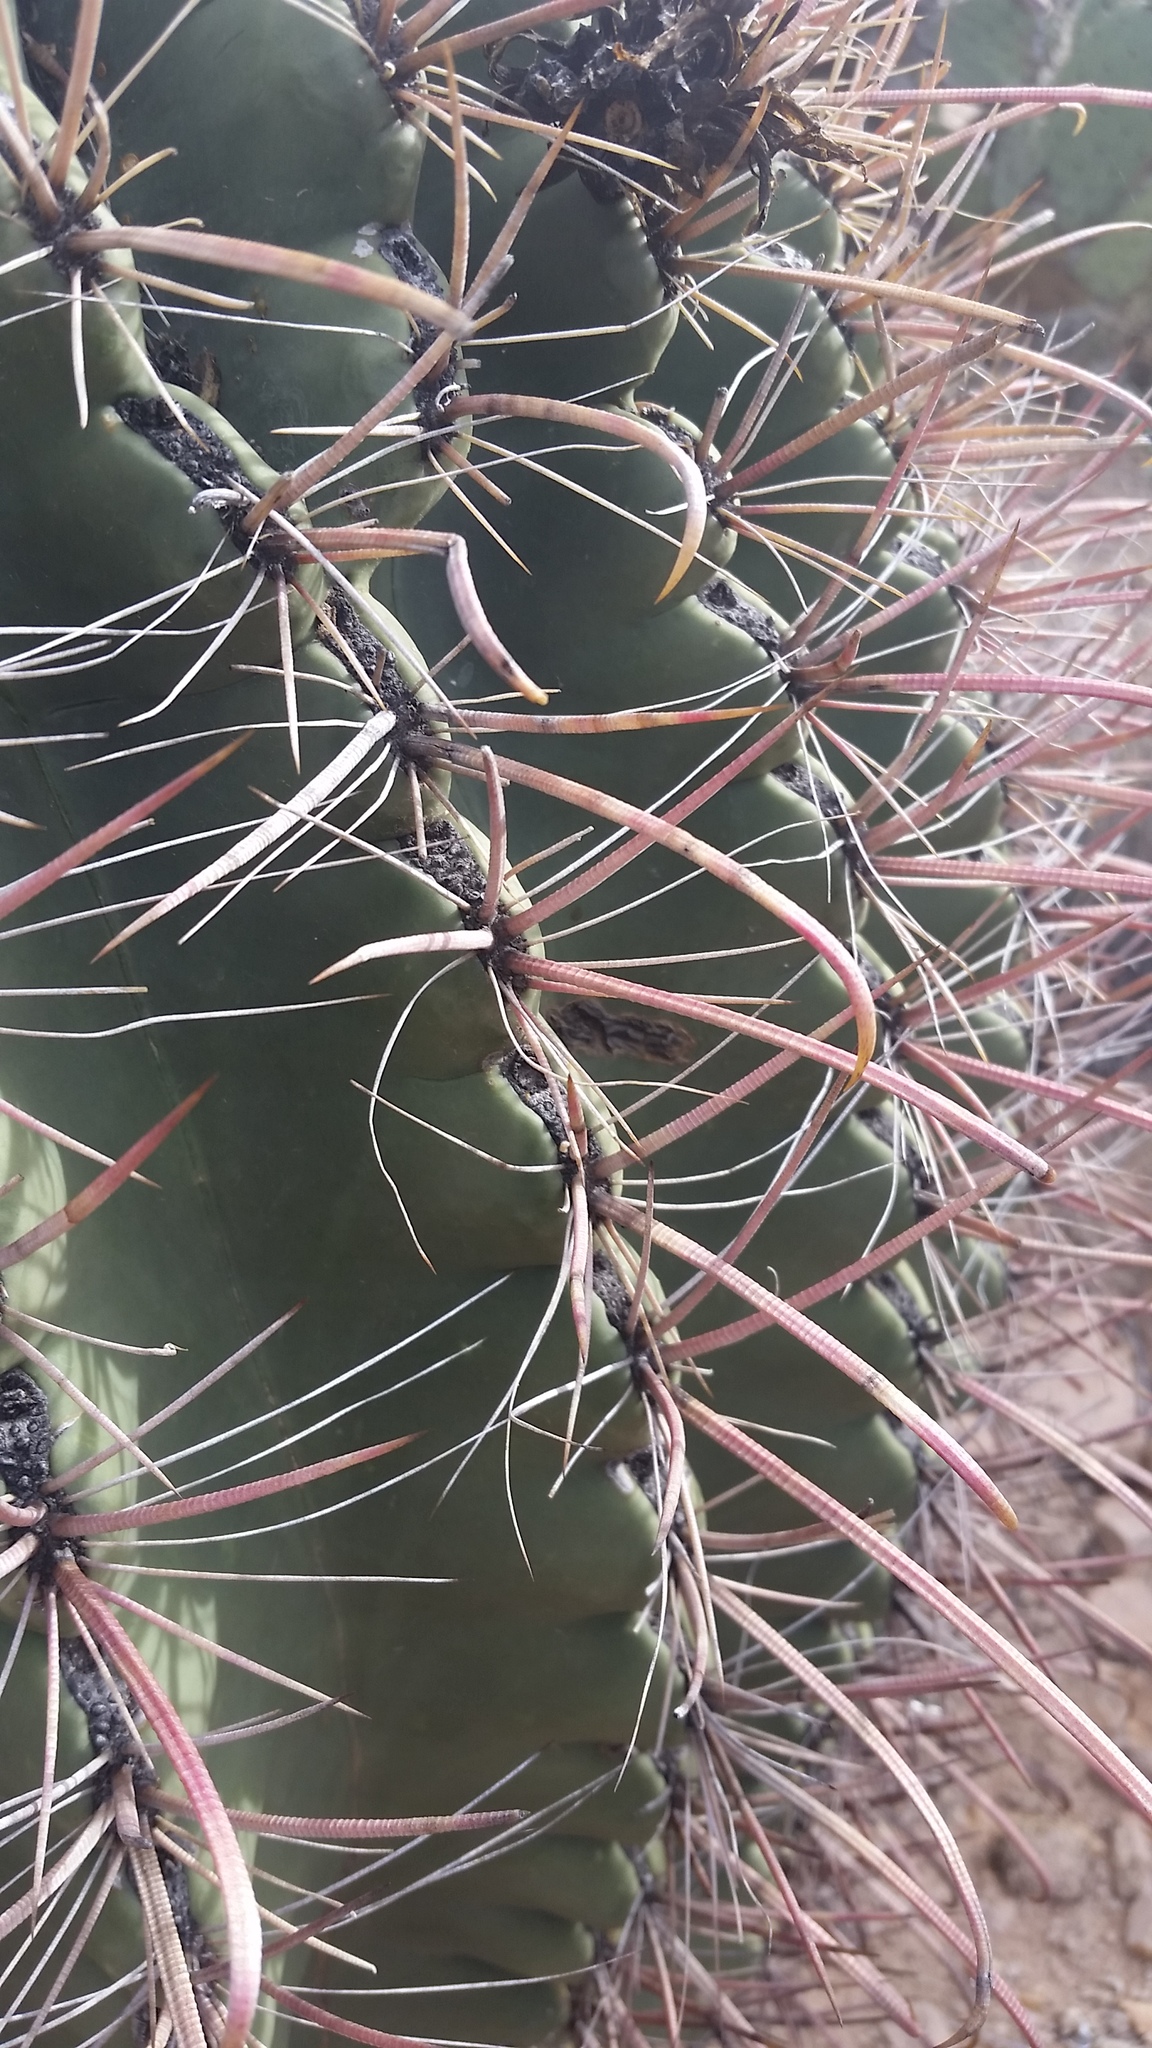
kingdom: Plantae
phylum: Tracheophyta
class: Magnoliopsida
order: Caryophyllales
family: Cactaceae
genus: Ferocactus
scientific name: Ferocactus wislizeni
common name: Candy barrel cactus
